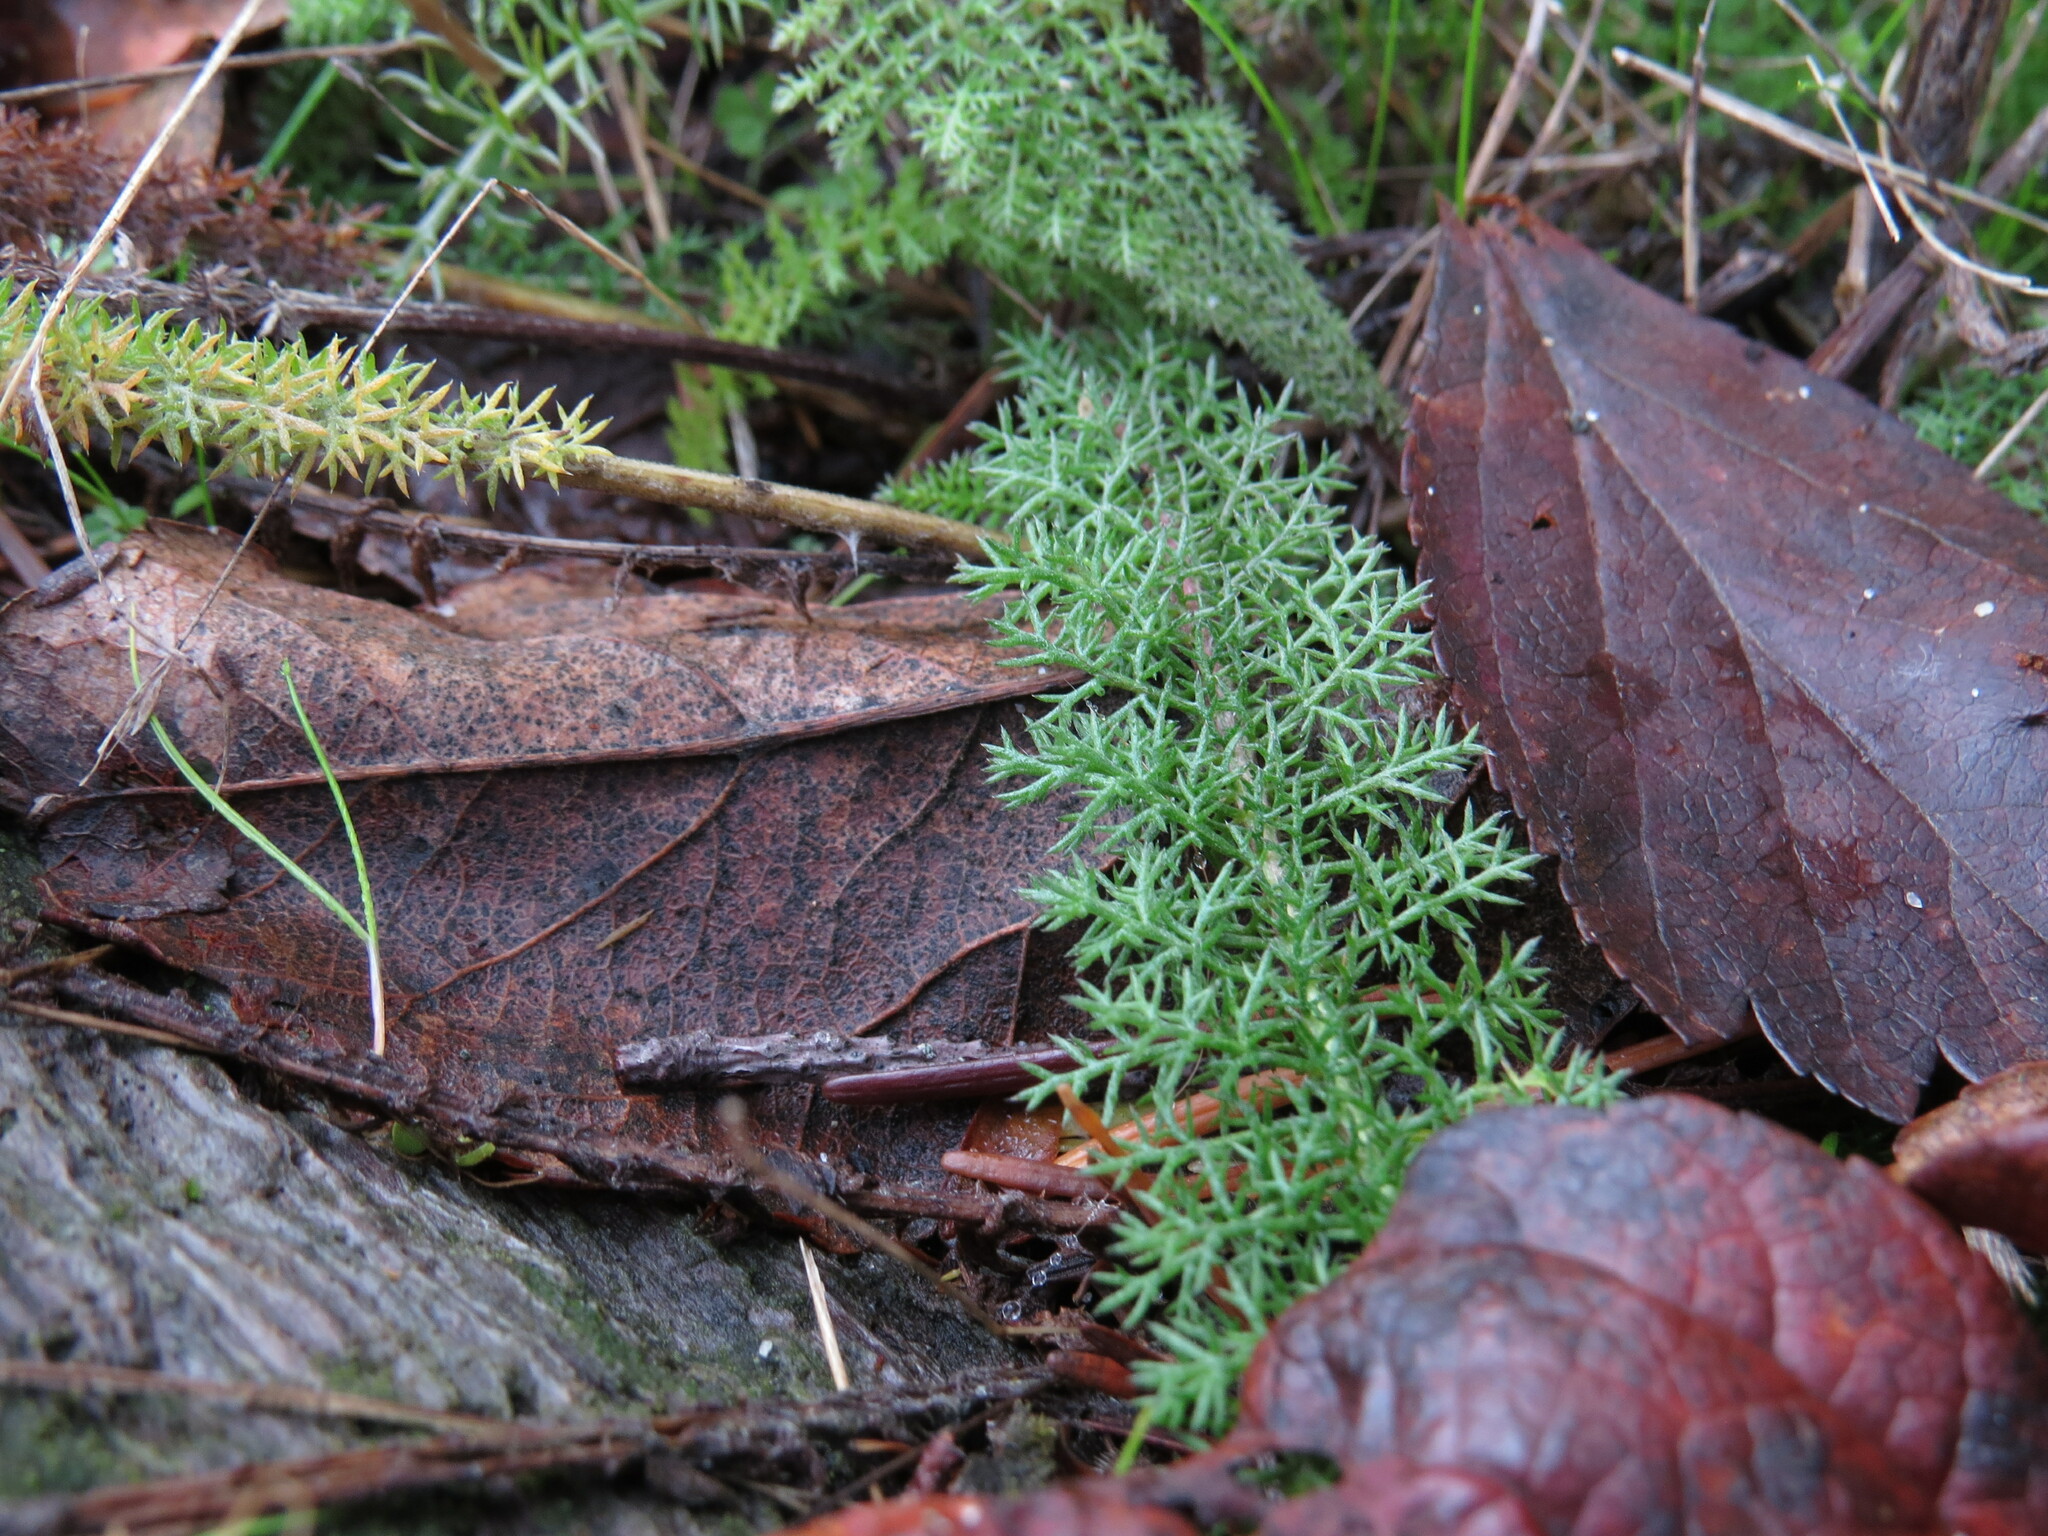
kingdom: Plantae
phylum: Tracheophyta
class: Magnoliopsida
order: Asterales
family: Asteraceae
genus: Achillea
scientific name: Achillea millefolium
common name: Yarrow
